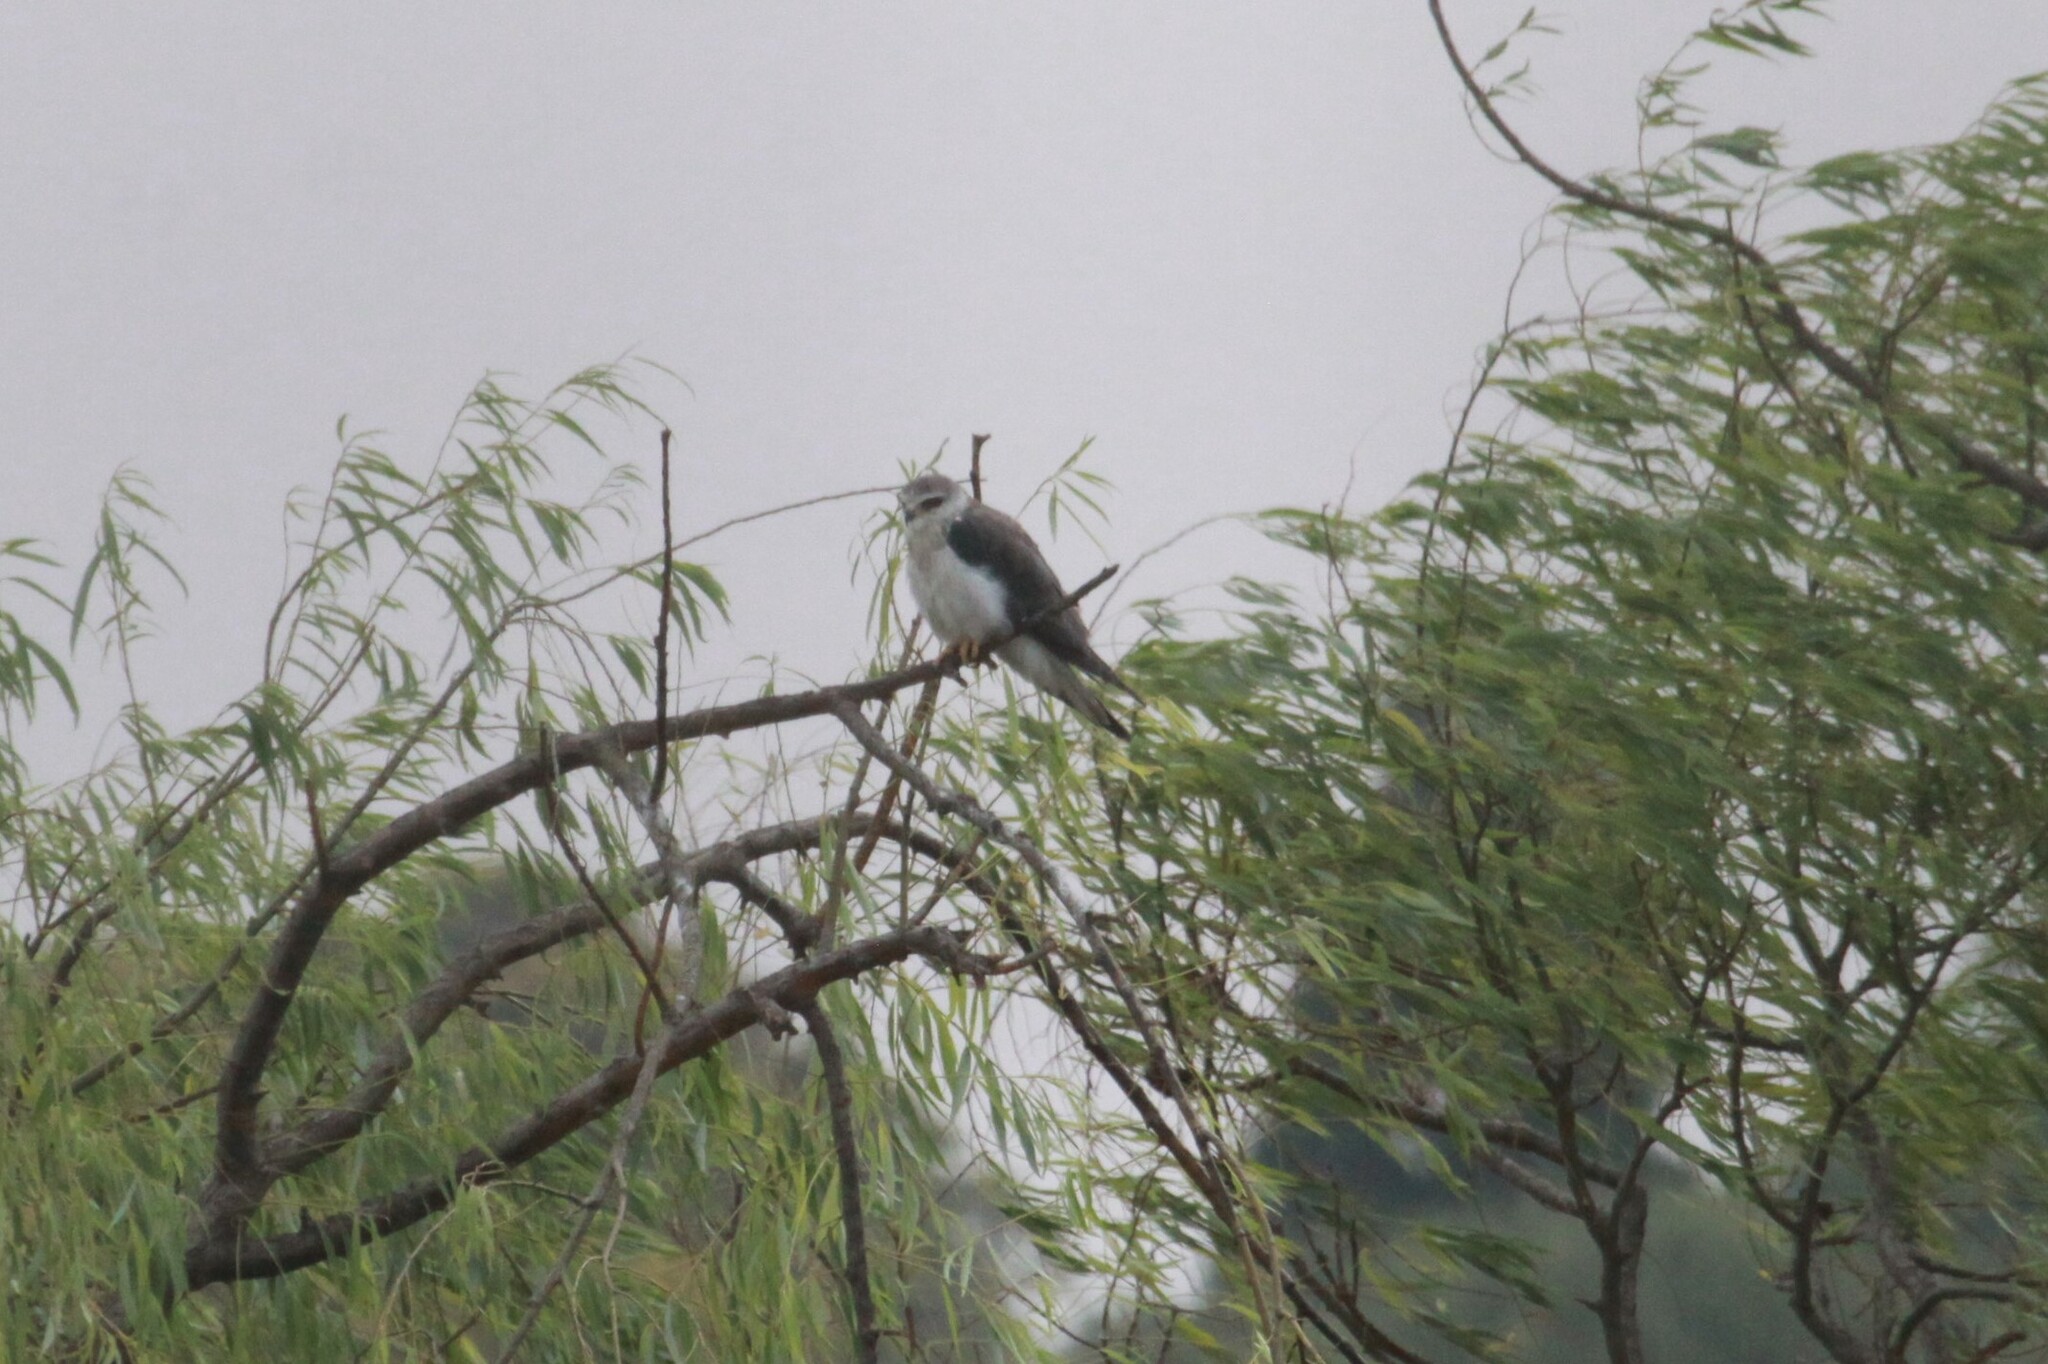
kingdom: Animalia
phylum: Chordata
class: Aves
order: Accipitriformes
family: Accipitridae
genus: Elanus
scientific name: Elanus caeruleus
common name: Black-winged kite
